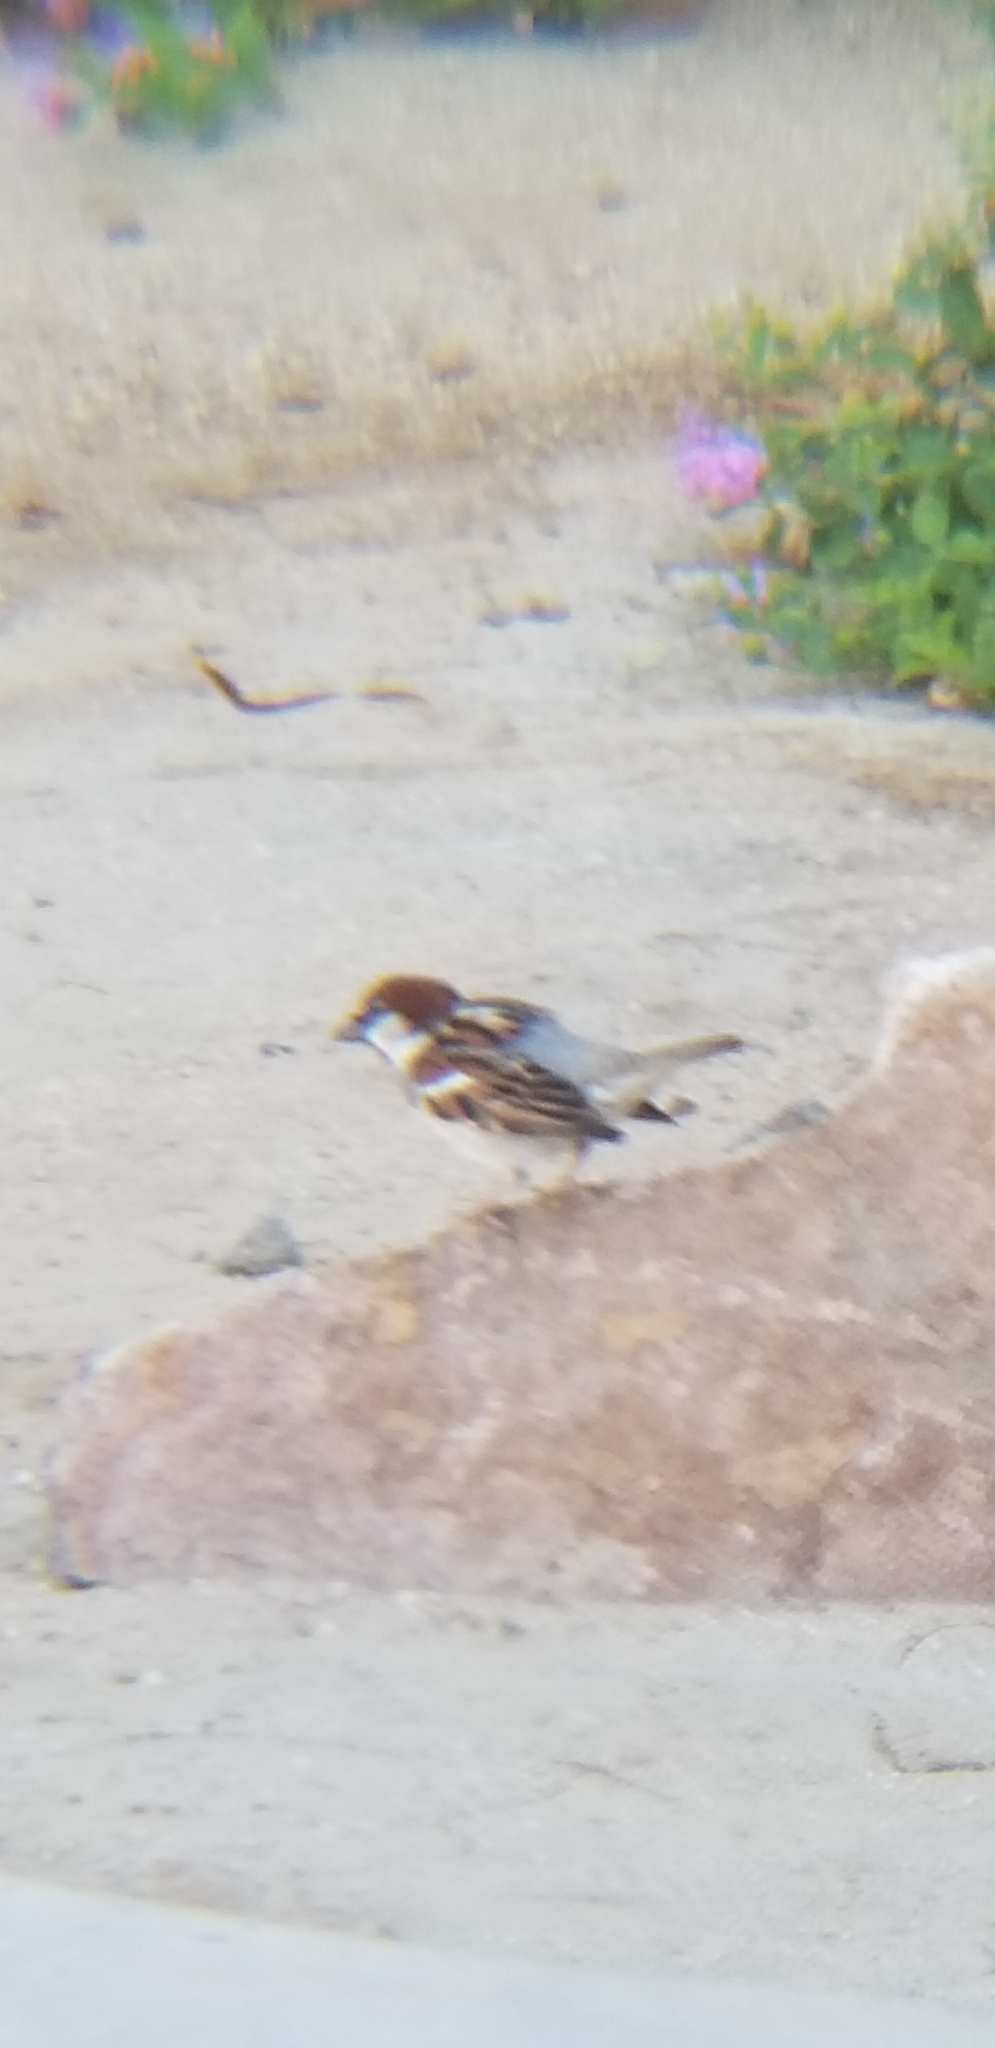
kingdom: Animalia
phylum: Chordata
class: Aves
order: Passeriformes
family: Passeridae
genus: Passer
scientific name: Passer domesticus
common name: House sparrow
